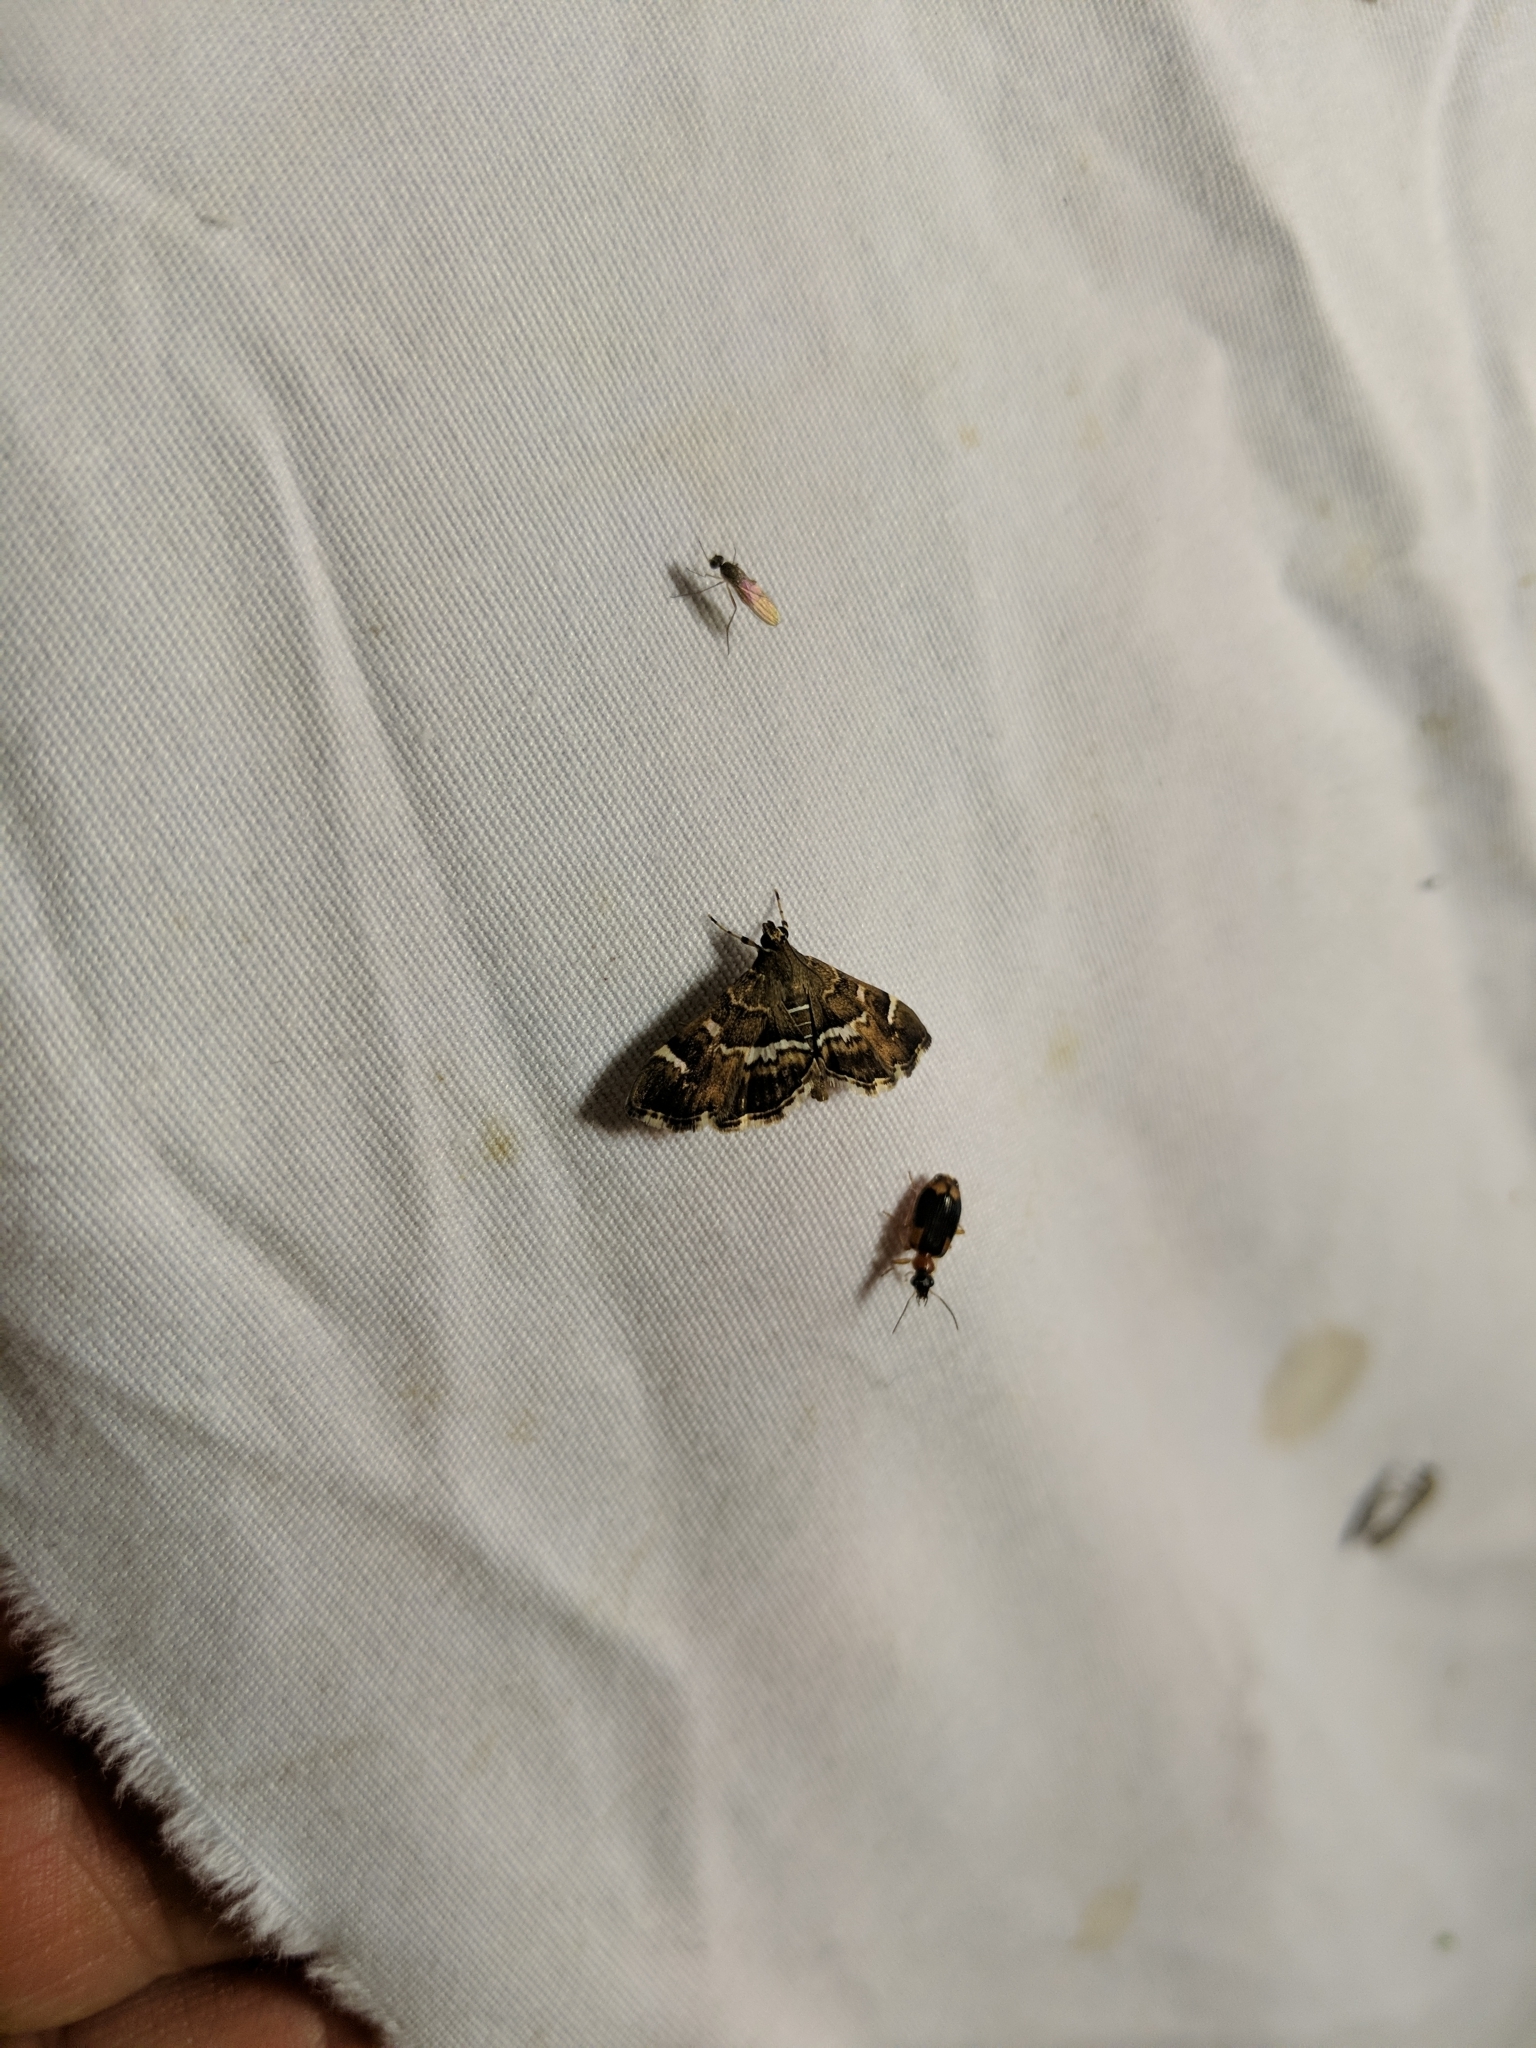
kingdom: Animalia
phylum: Arthropoda
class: Insecta
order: Lepidoptera
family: Crambidae
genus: Hymenia
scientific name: Hymenia perspectalis
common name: Spotted beet webworm
